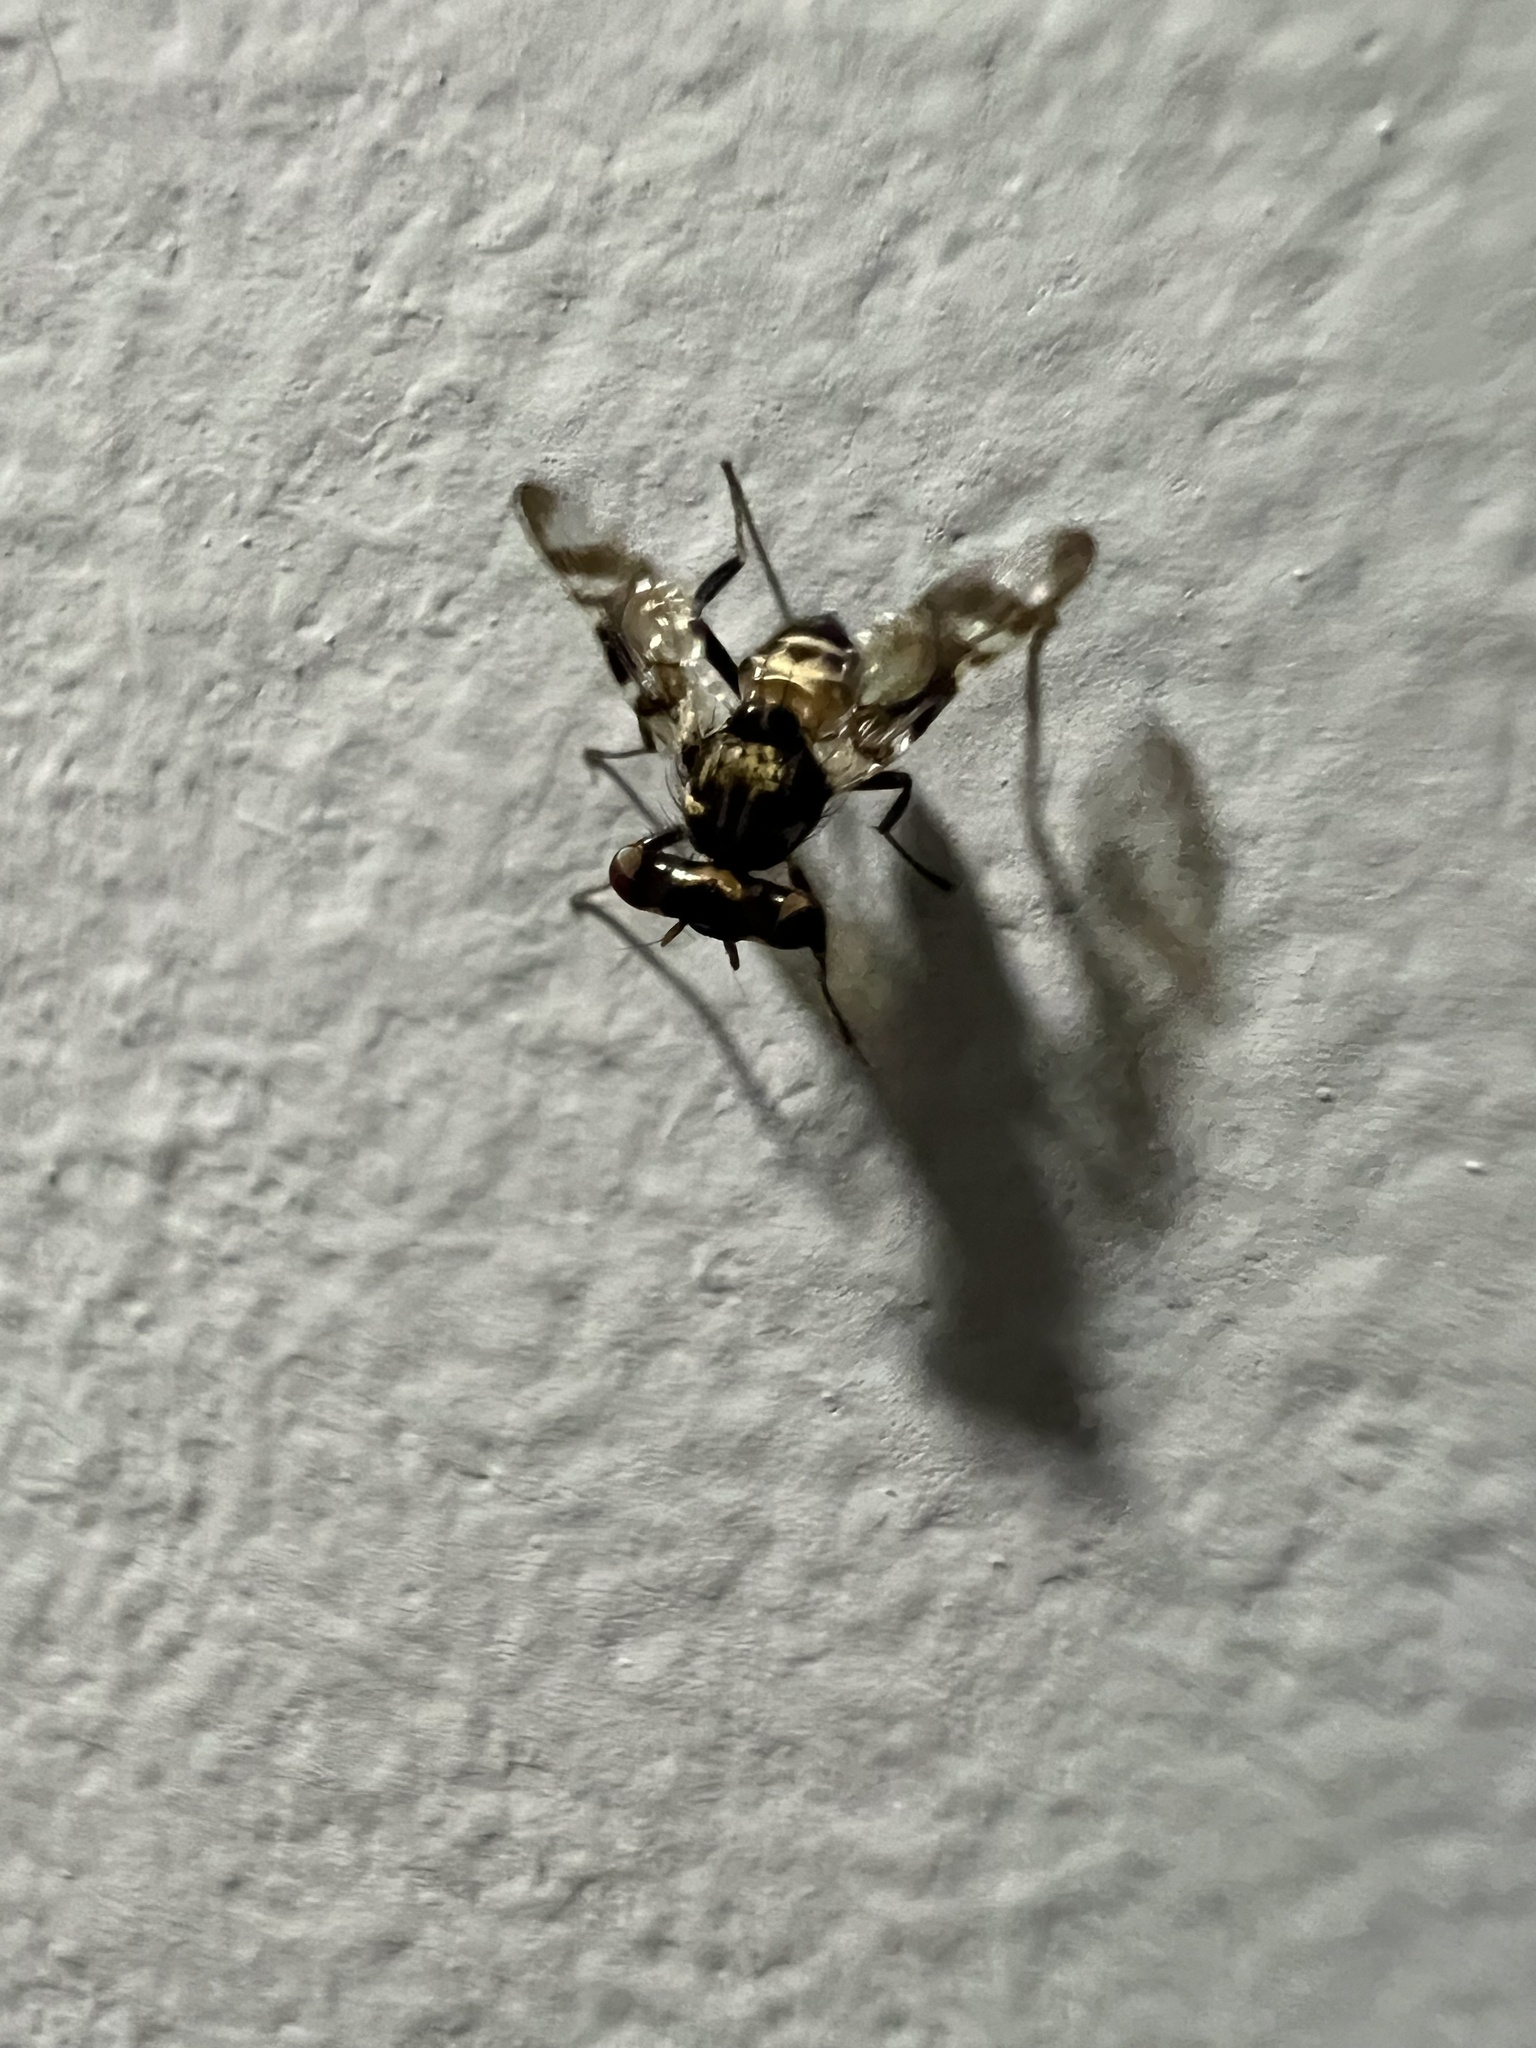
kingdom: Animalia
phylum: Arthropoda
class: Insecta
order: Diptera
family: Ulidiidae
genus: Plagiocephalus
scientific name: Plagiocephalus lobularis
